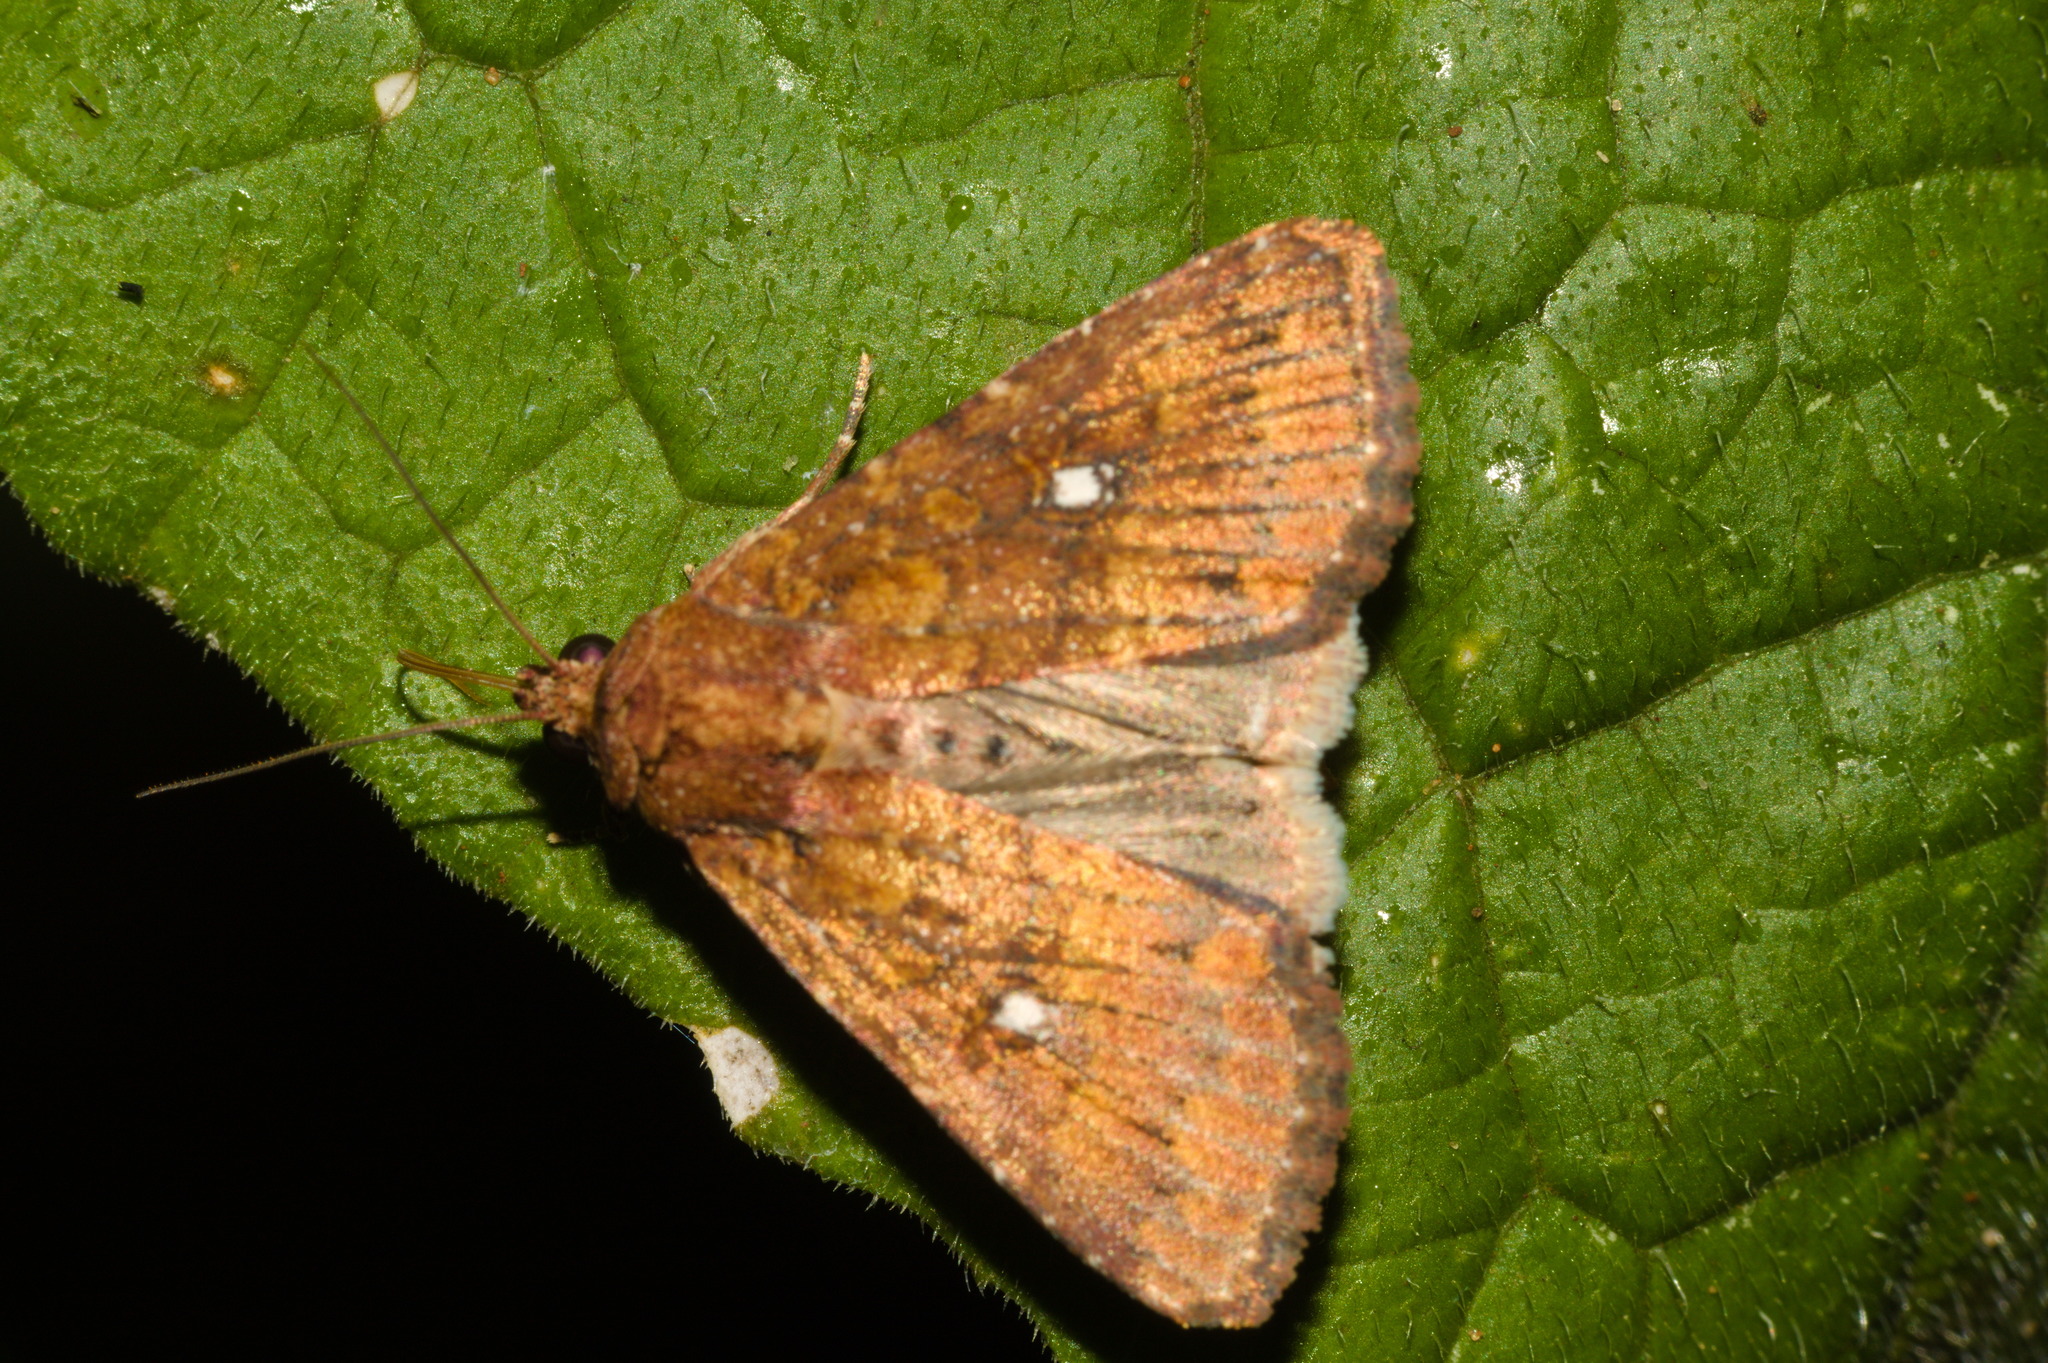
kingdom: Animalia
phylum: Arthropoda
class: Insecta
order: Lepidoptera
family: Noctuidae
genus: Condica
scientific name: Condica mobilis
